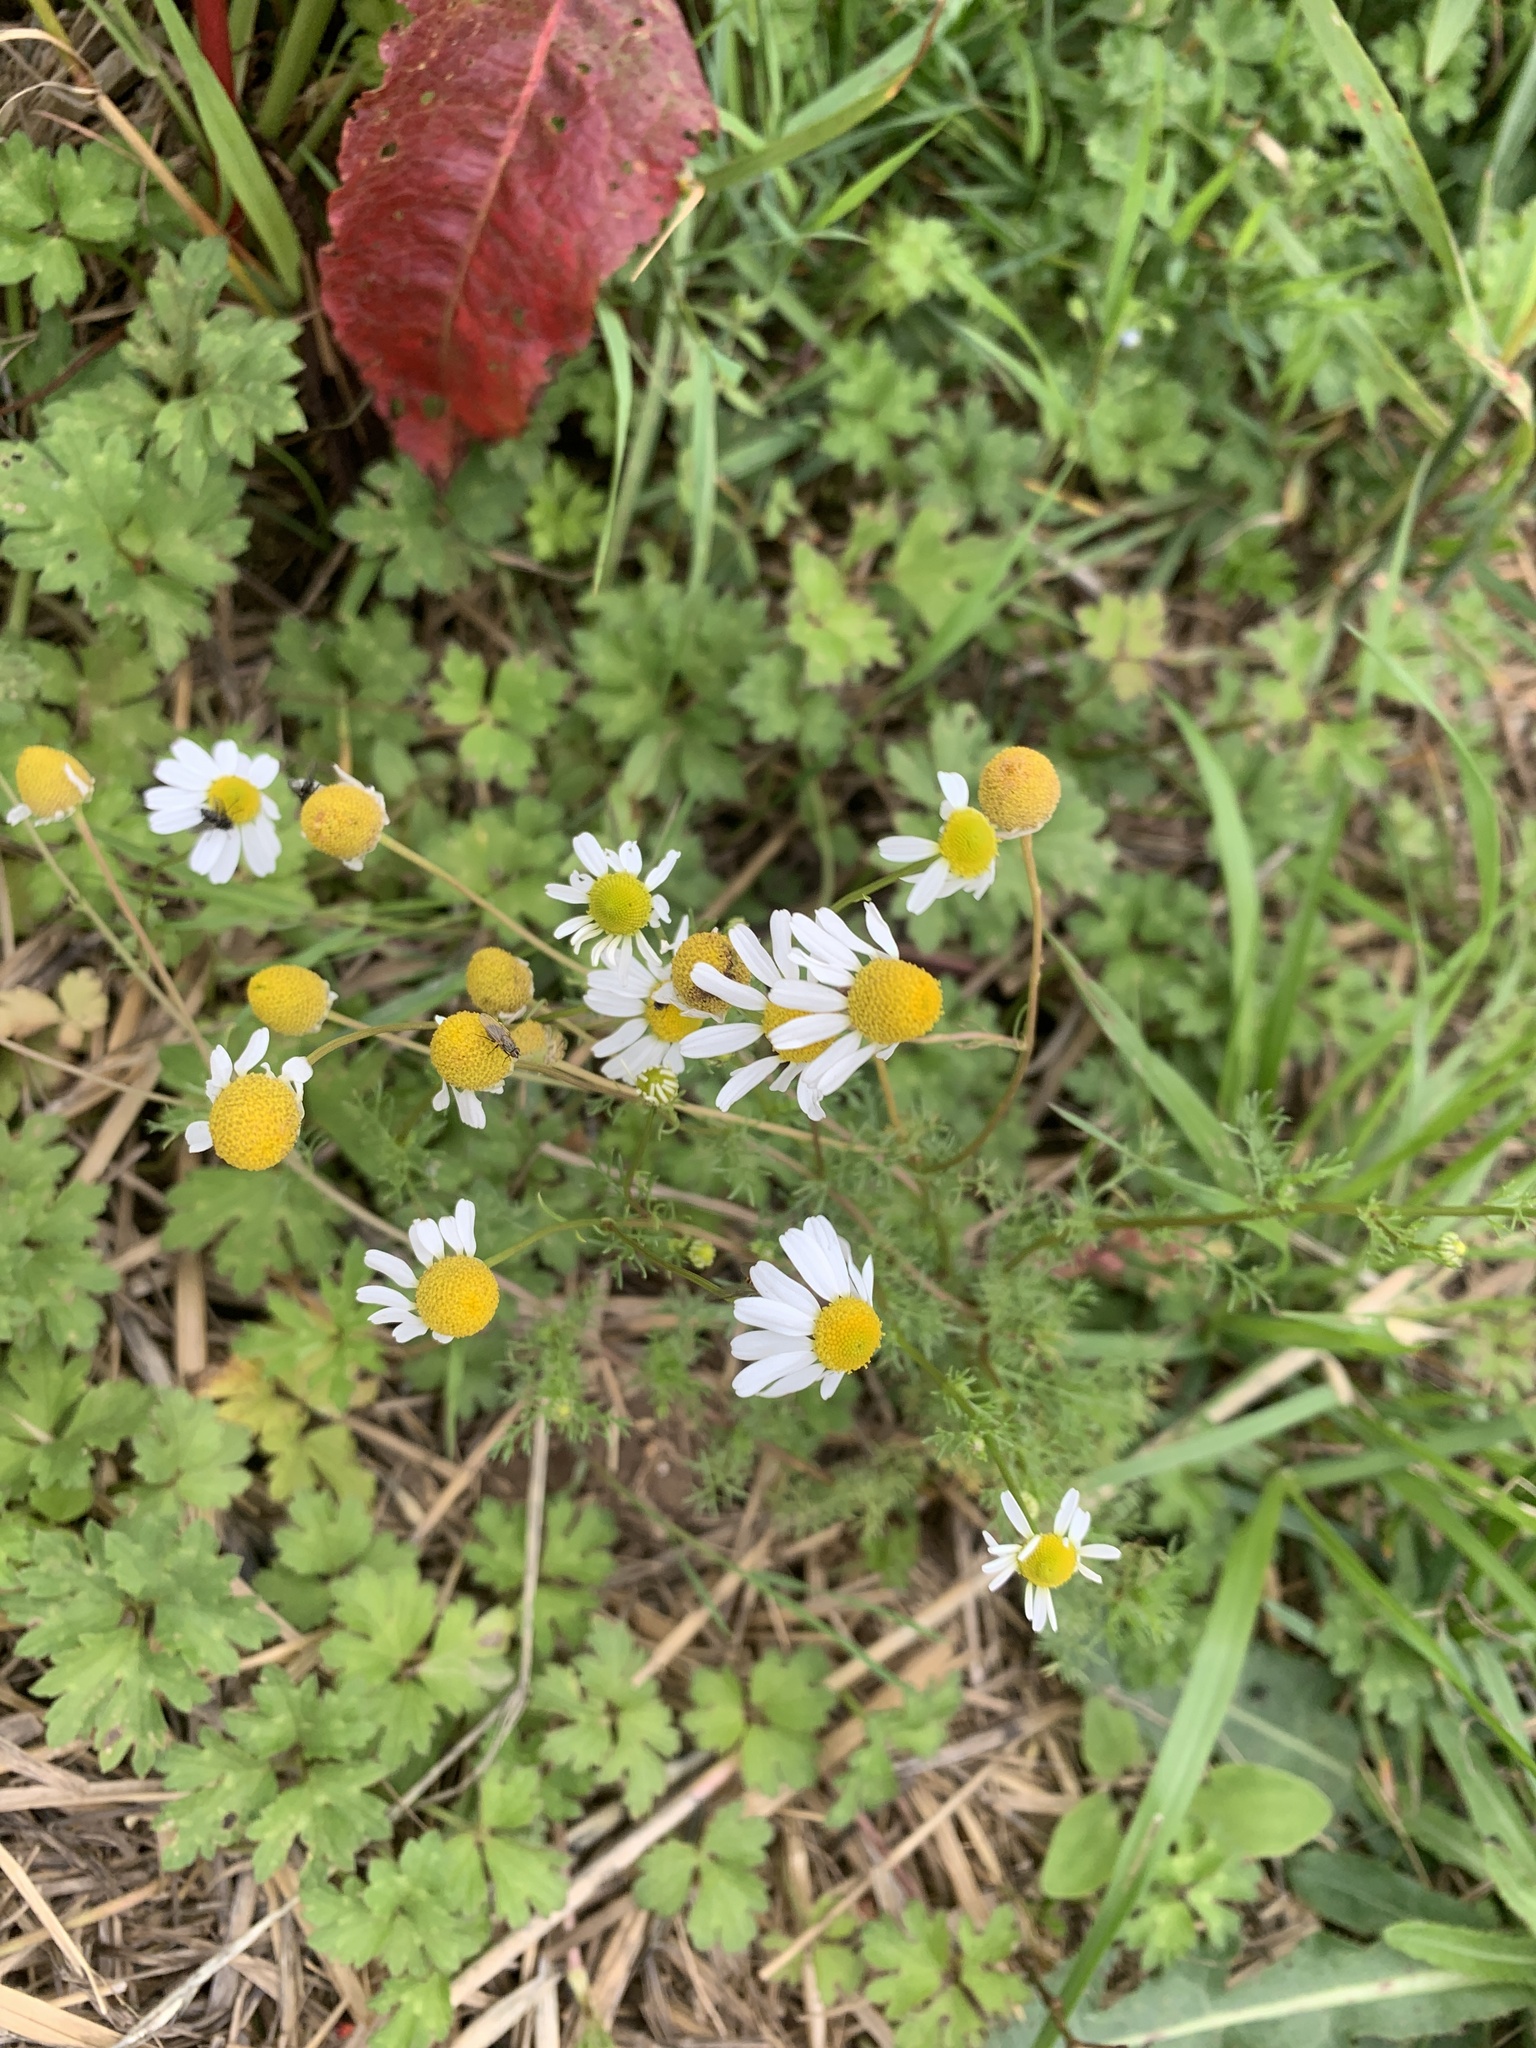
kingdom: Plantae
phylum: Tracheophyta
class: Magnoliopsida
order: Asterales
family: Asteraceae
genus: Matricaria
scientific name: Matricaria chamomilla
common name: Scented mayweed
